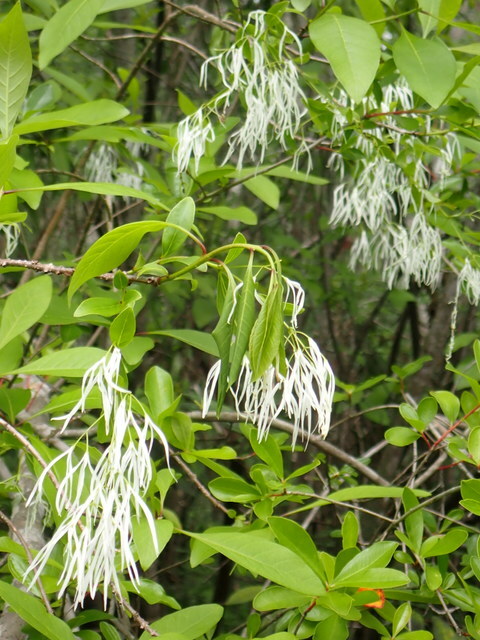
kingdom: Plantae
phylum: Tracheophyta
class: Magnoliopsida
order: Lamiales
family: Oleaceae
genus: Chionanthus
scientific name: Chionanthus virginicus
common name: American fringetree
